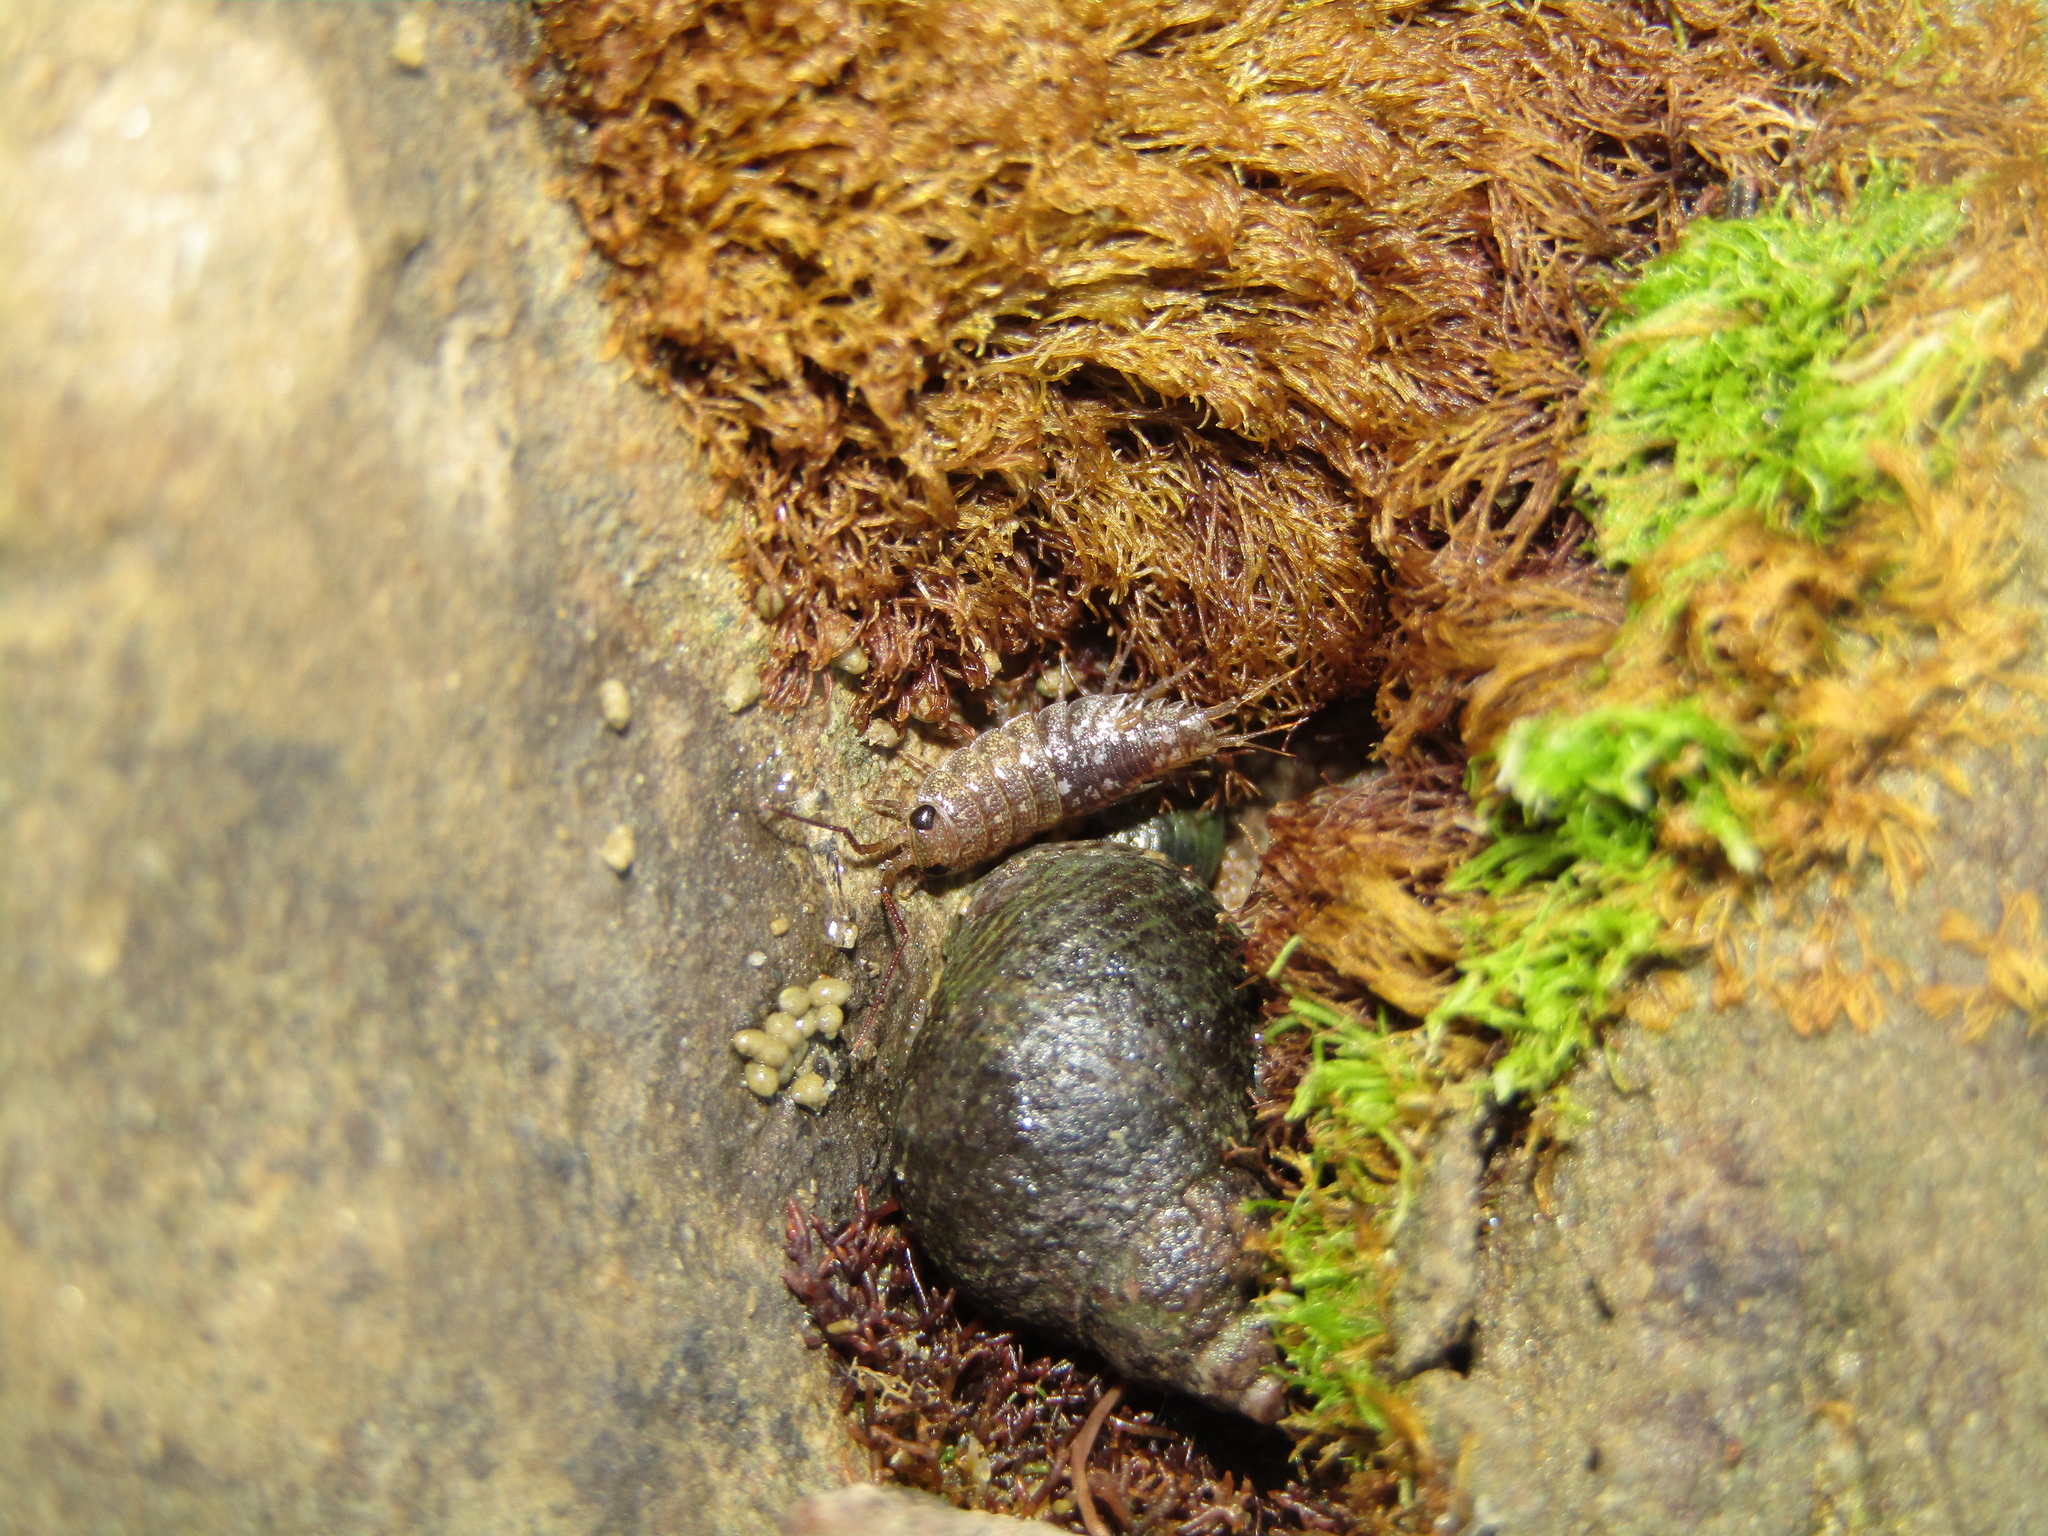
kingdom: Animalia
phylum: Arthropoda
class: Malacostraca
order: Isopoda
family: Ligiidae
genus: Ligia
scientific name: Ligia novizealandiae
